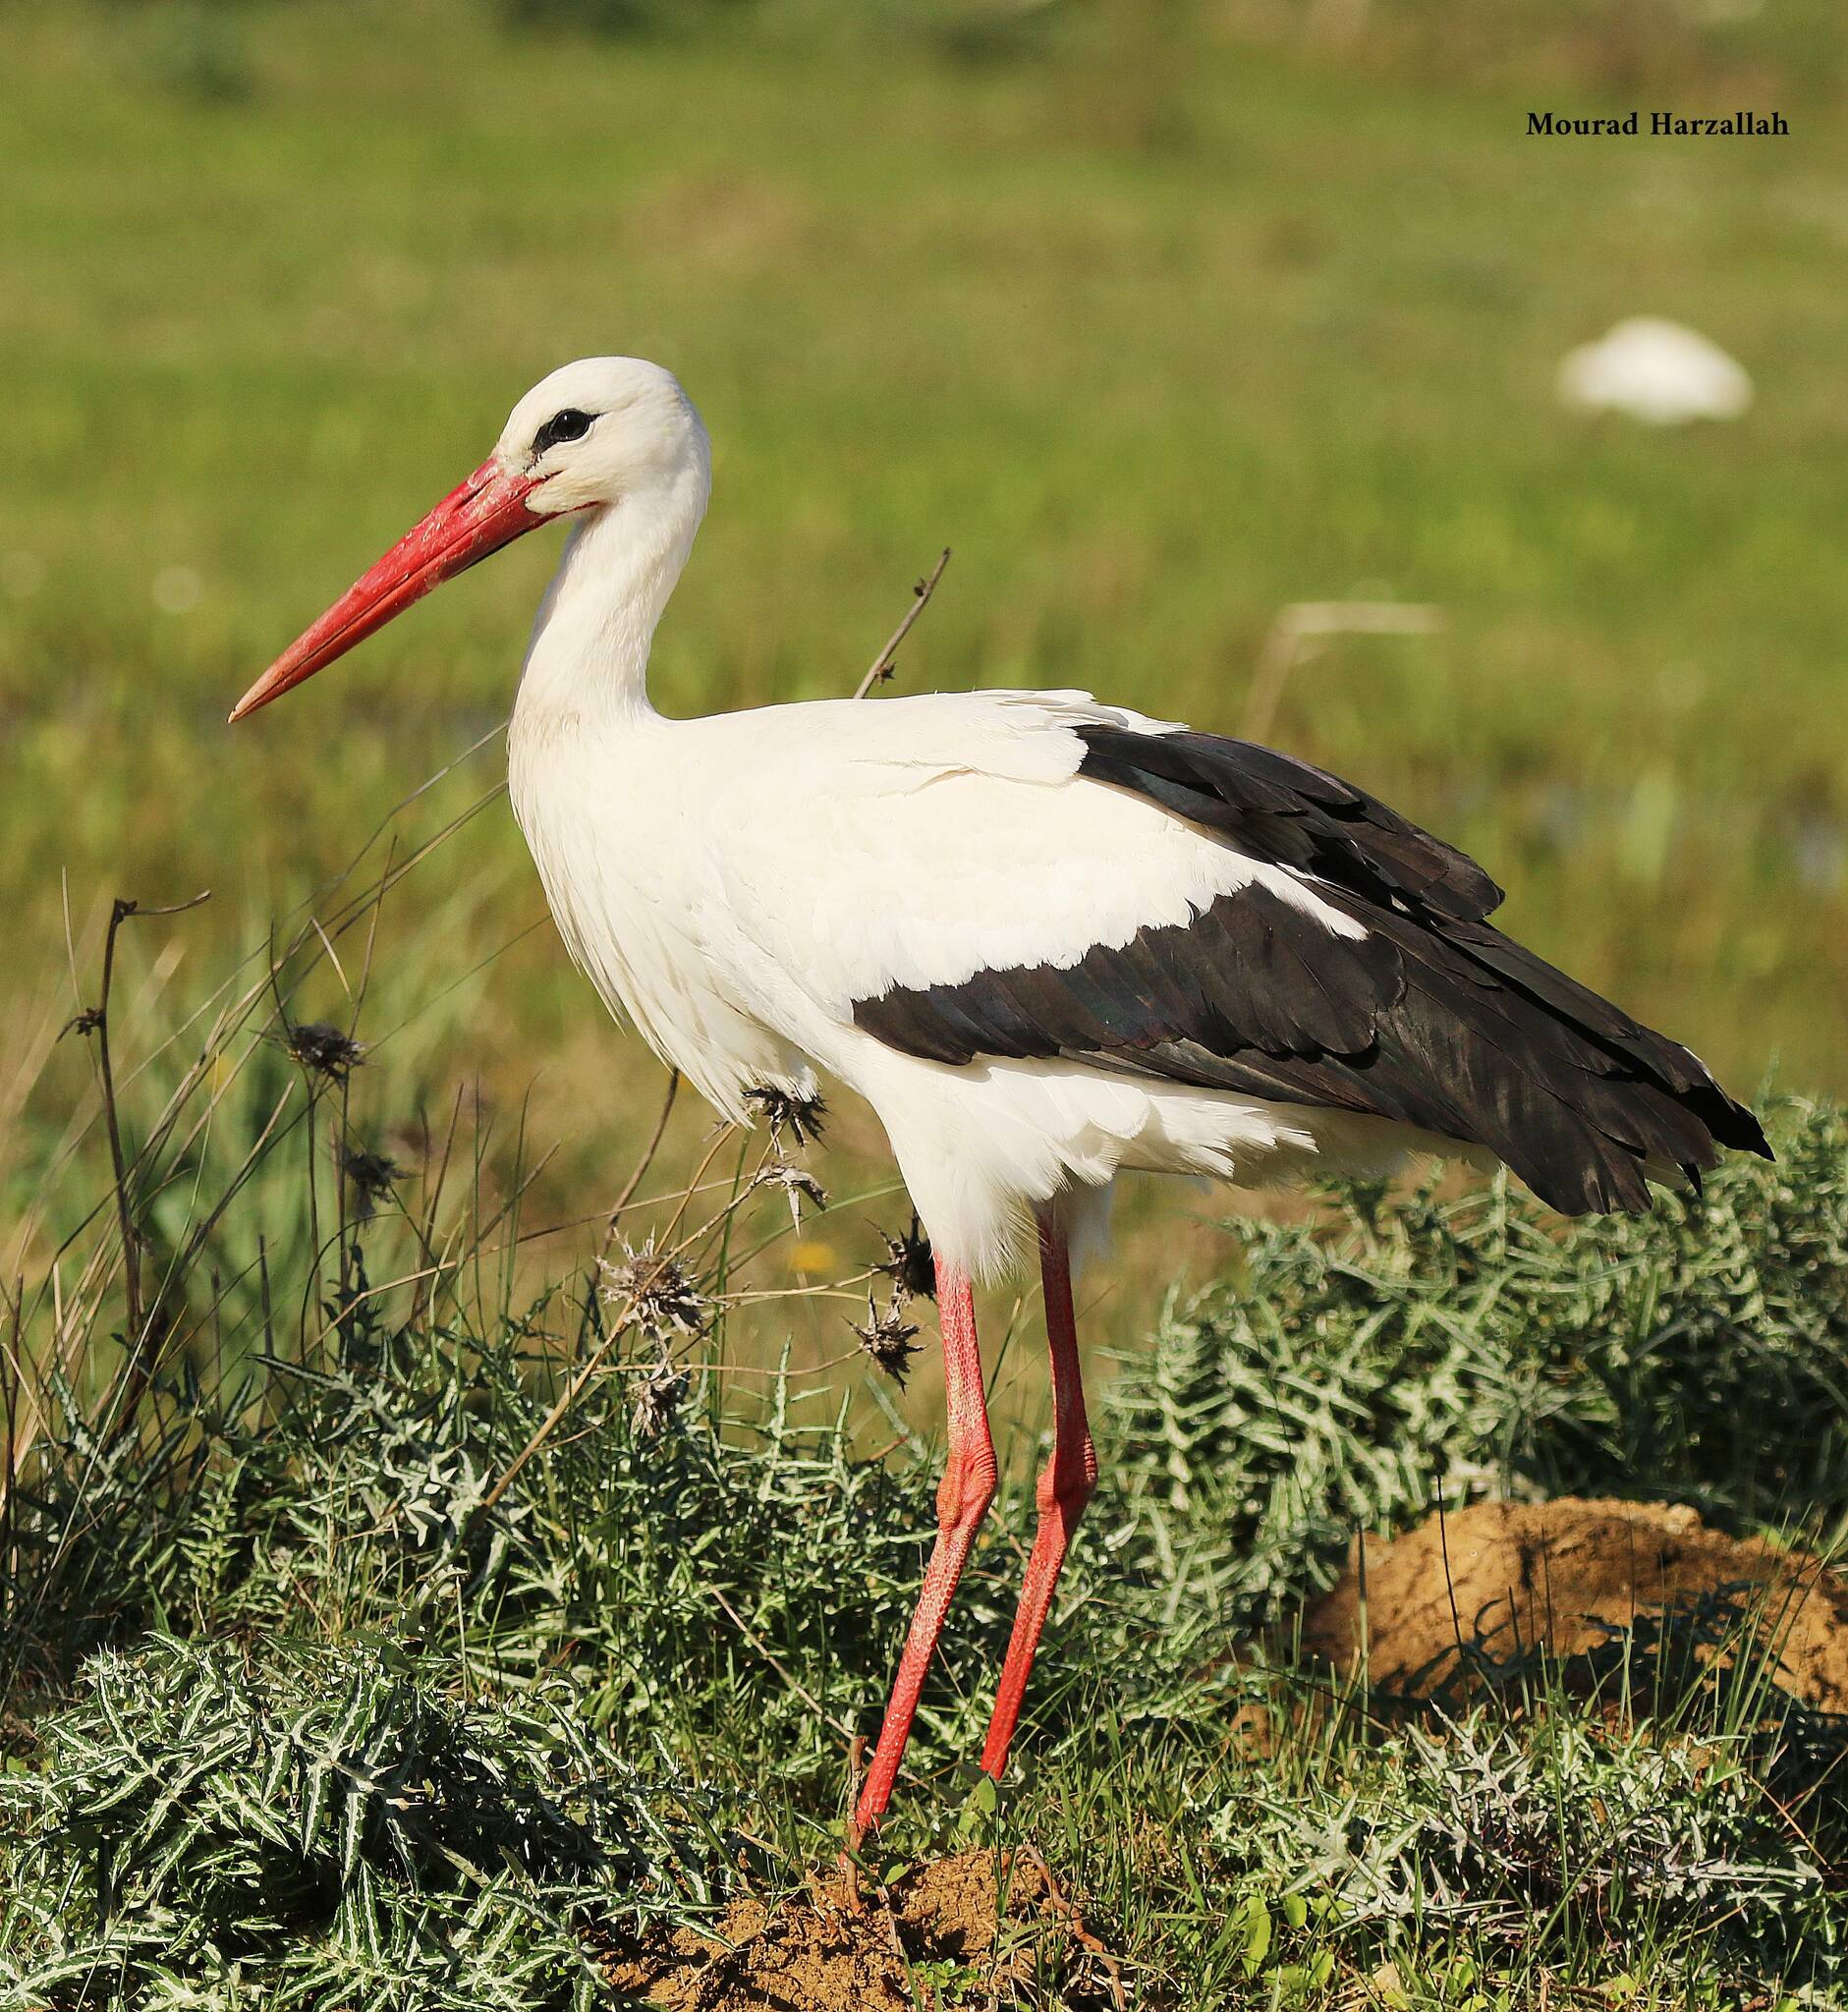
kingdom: Animalia
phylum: Chordata
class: Aves
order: Ciconiiformes
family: Ciconiidae
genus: Ciconia
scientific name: Ciconia ciconia
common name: White stork
